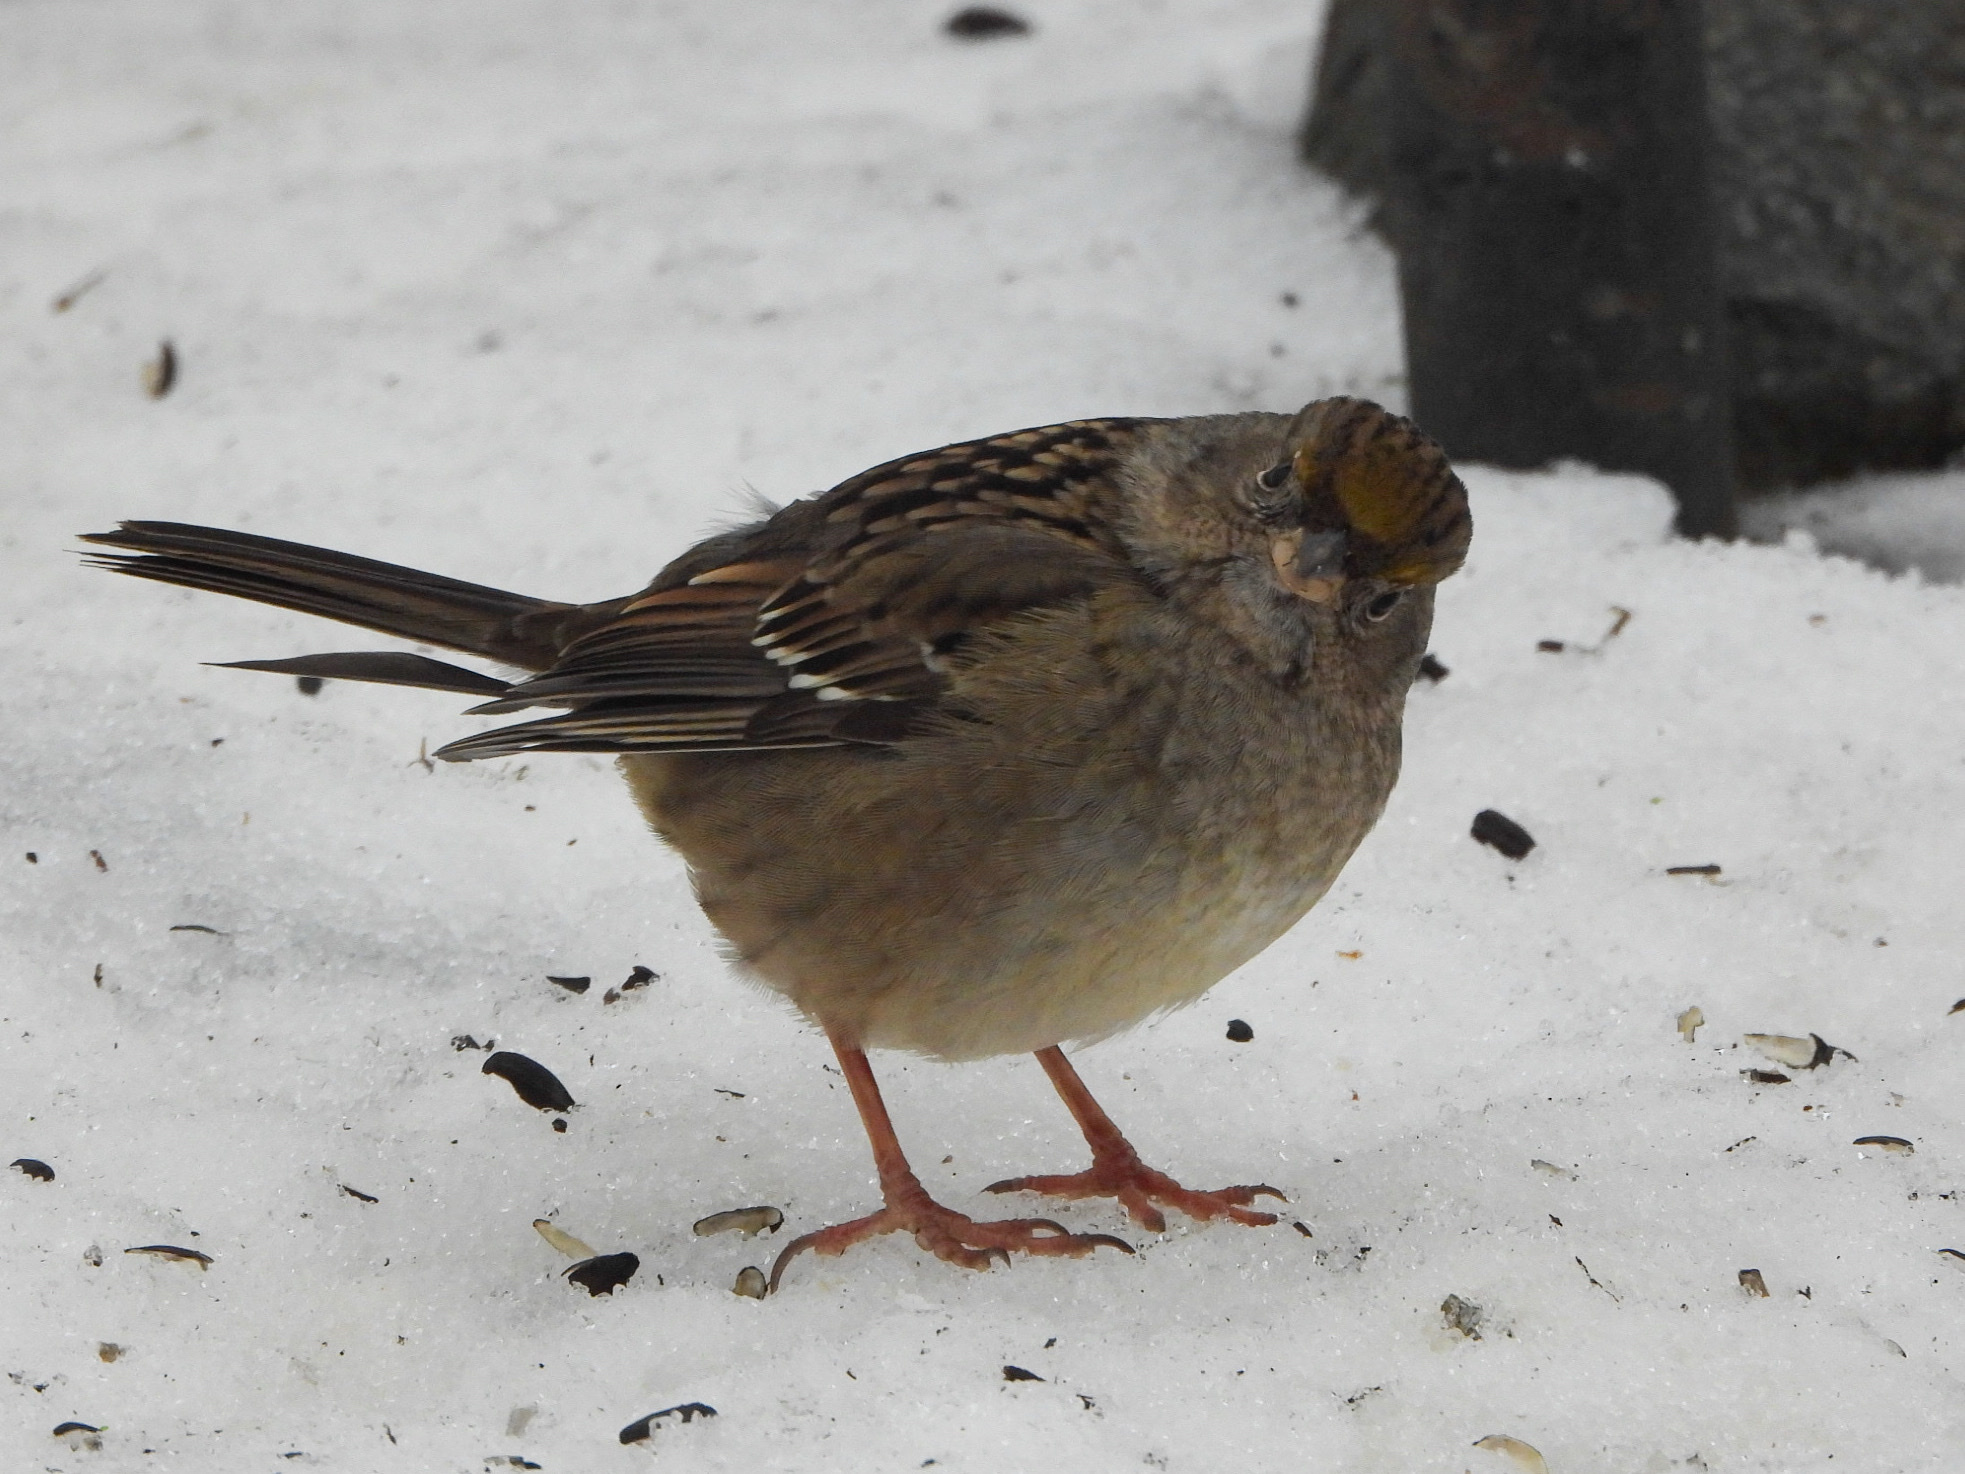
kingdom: Animalia
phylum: Chordata
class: Aves
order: Passeriformes
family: Passerellidae
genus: Zonotrichia
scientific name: Zonotrichia atricapilla
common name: Golden-crowned sparrow
